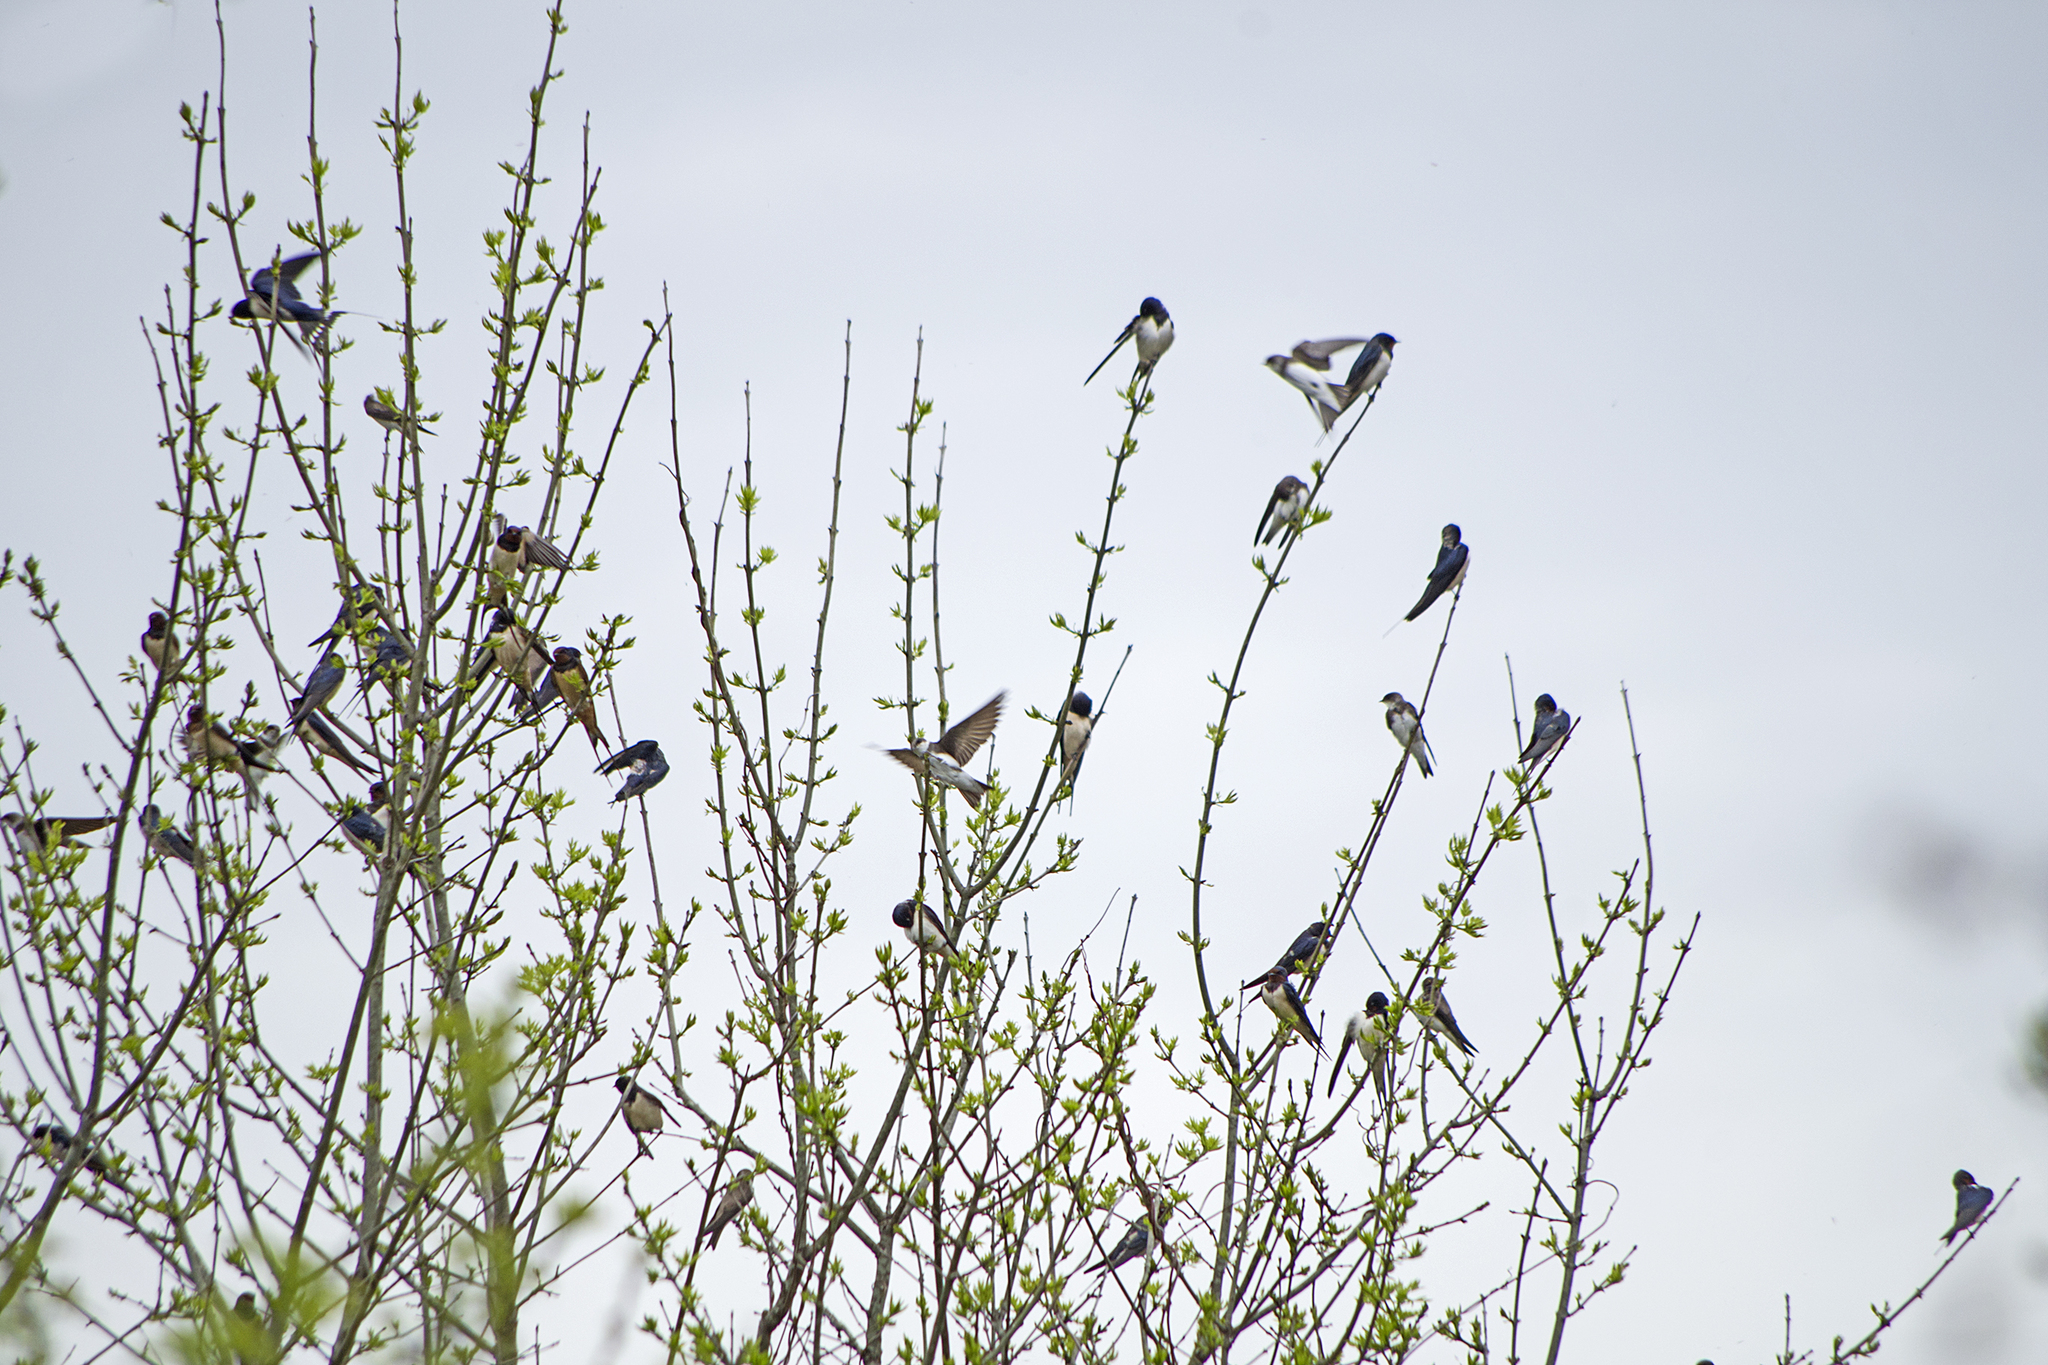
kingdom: Animalia
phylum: Chordata
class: Aves
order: Passeriformes
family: Hirundinidae
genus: Hirundo
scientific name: Hirundo rustica
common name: Barn swallow
